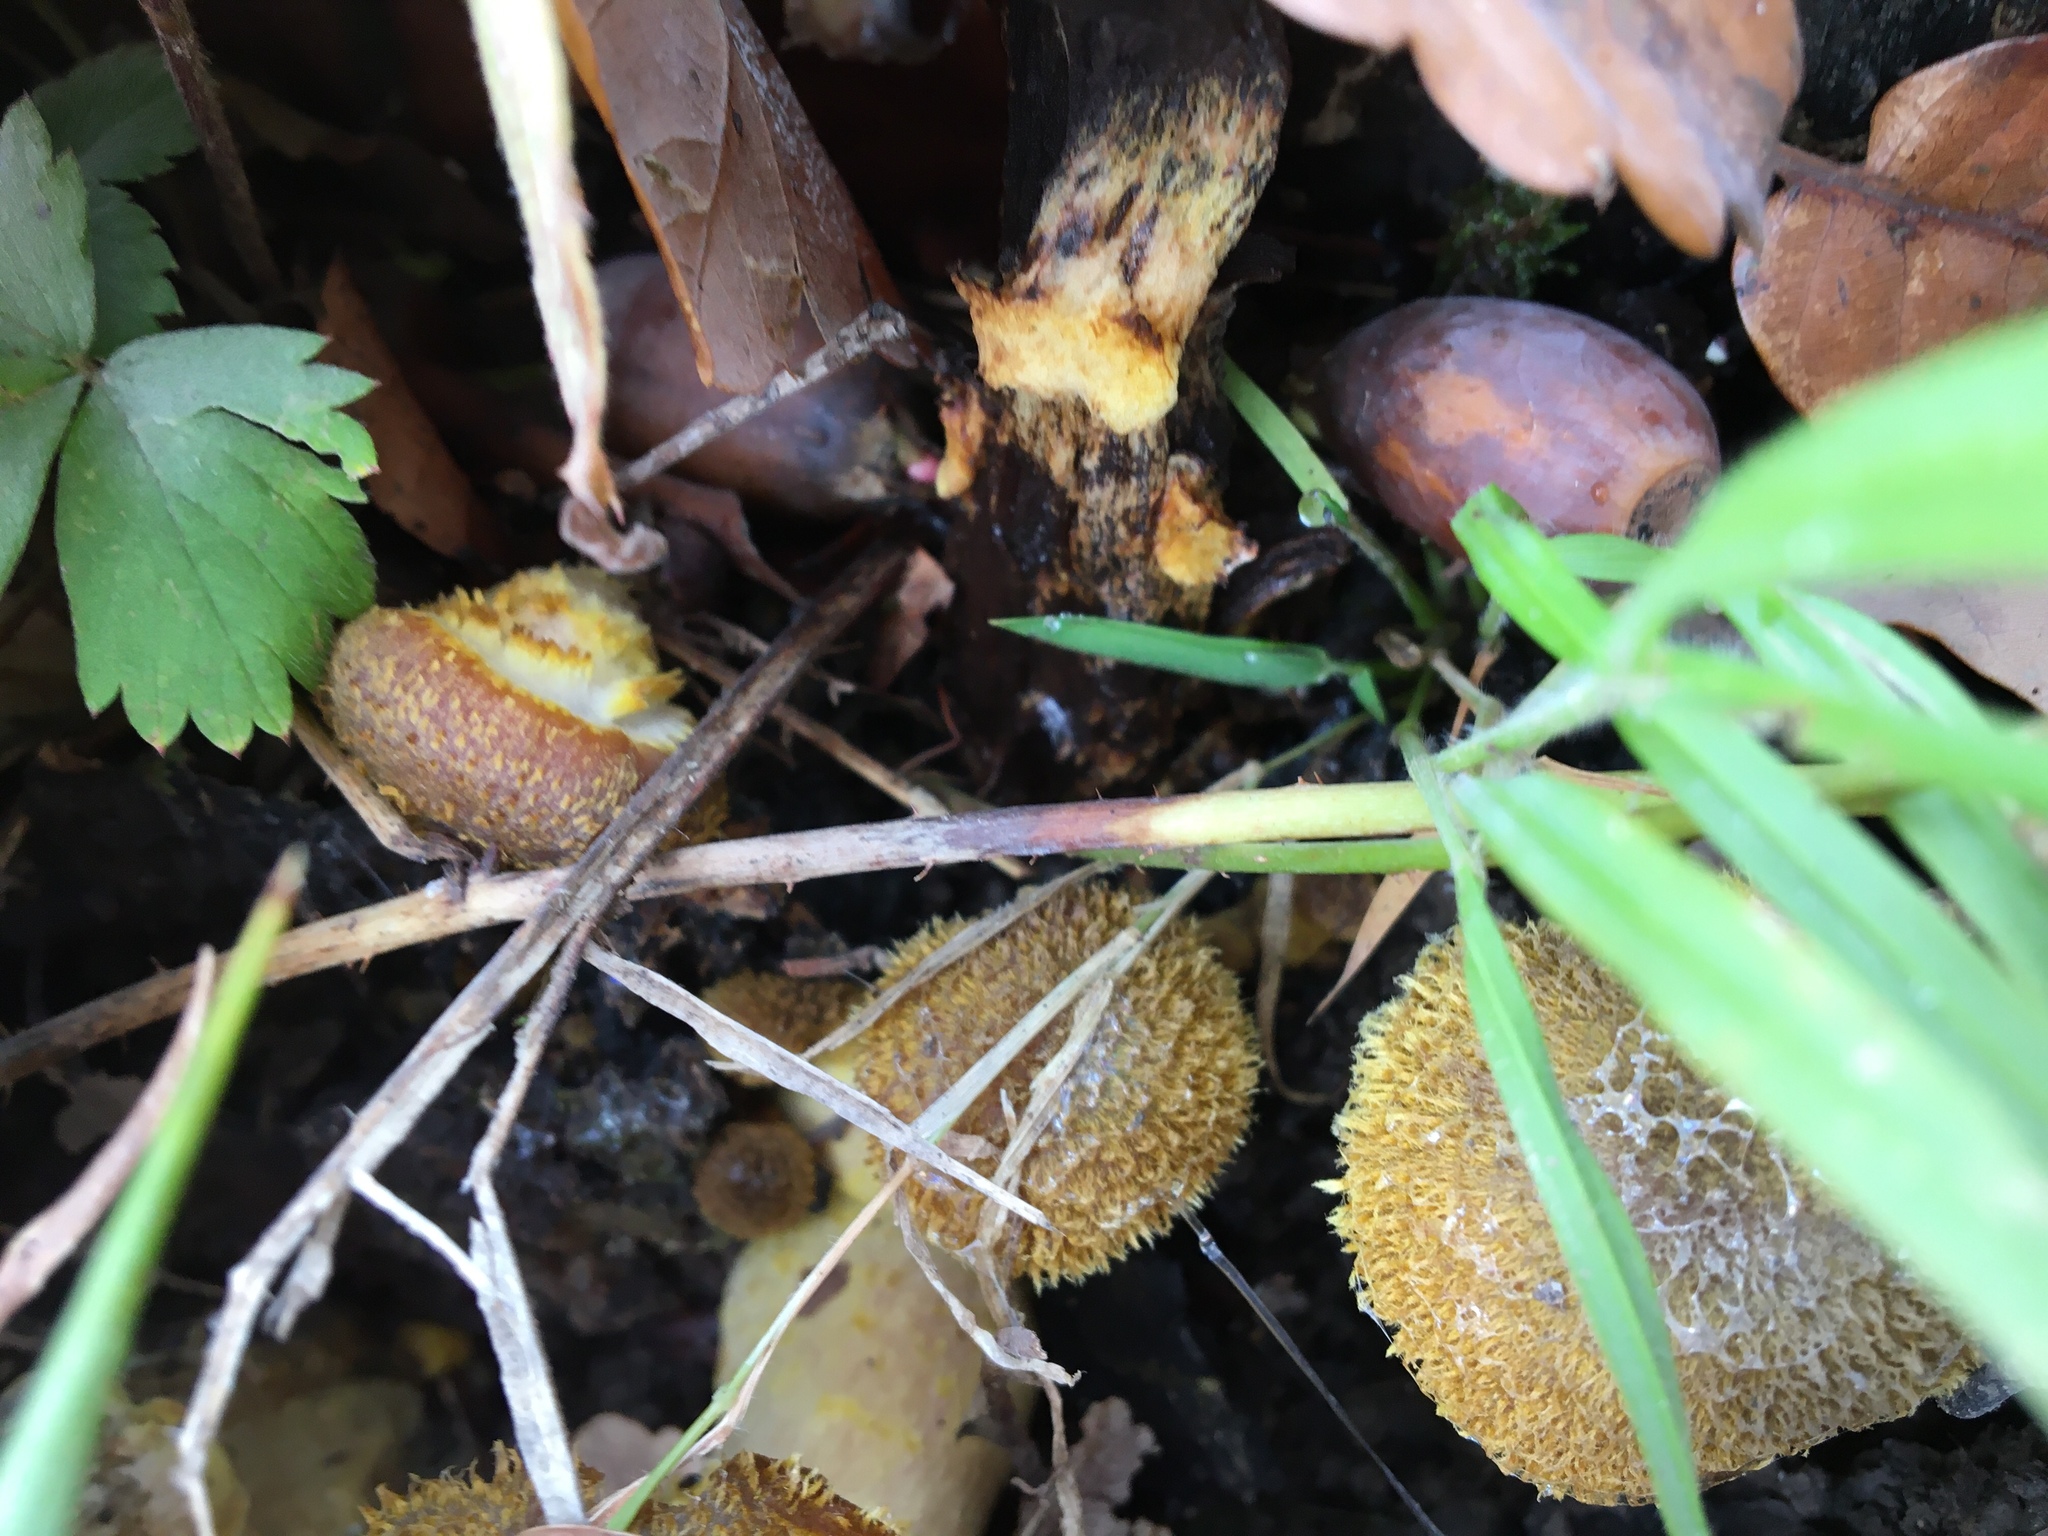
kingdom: Fungi
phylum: Basidiomycota
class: Agaricomycetes
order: Agaricales
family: Physalacriaceae
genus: Armillaria
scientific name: Armillaria gallica
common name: Bulbous honey fungus
